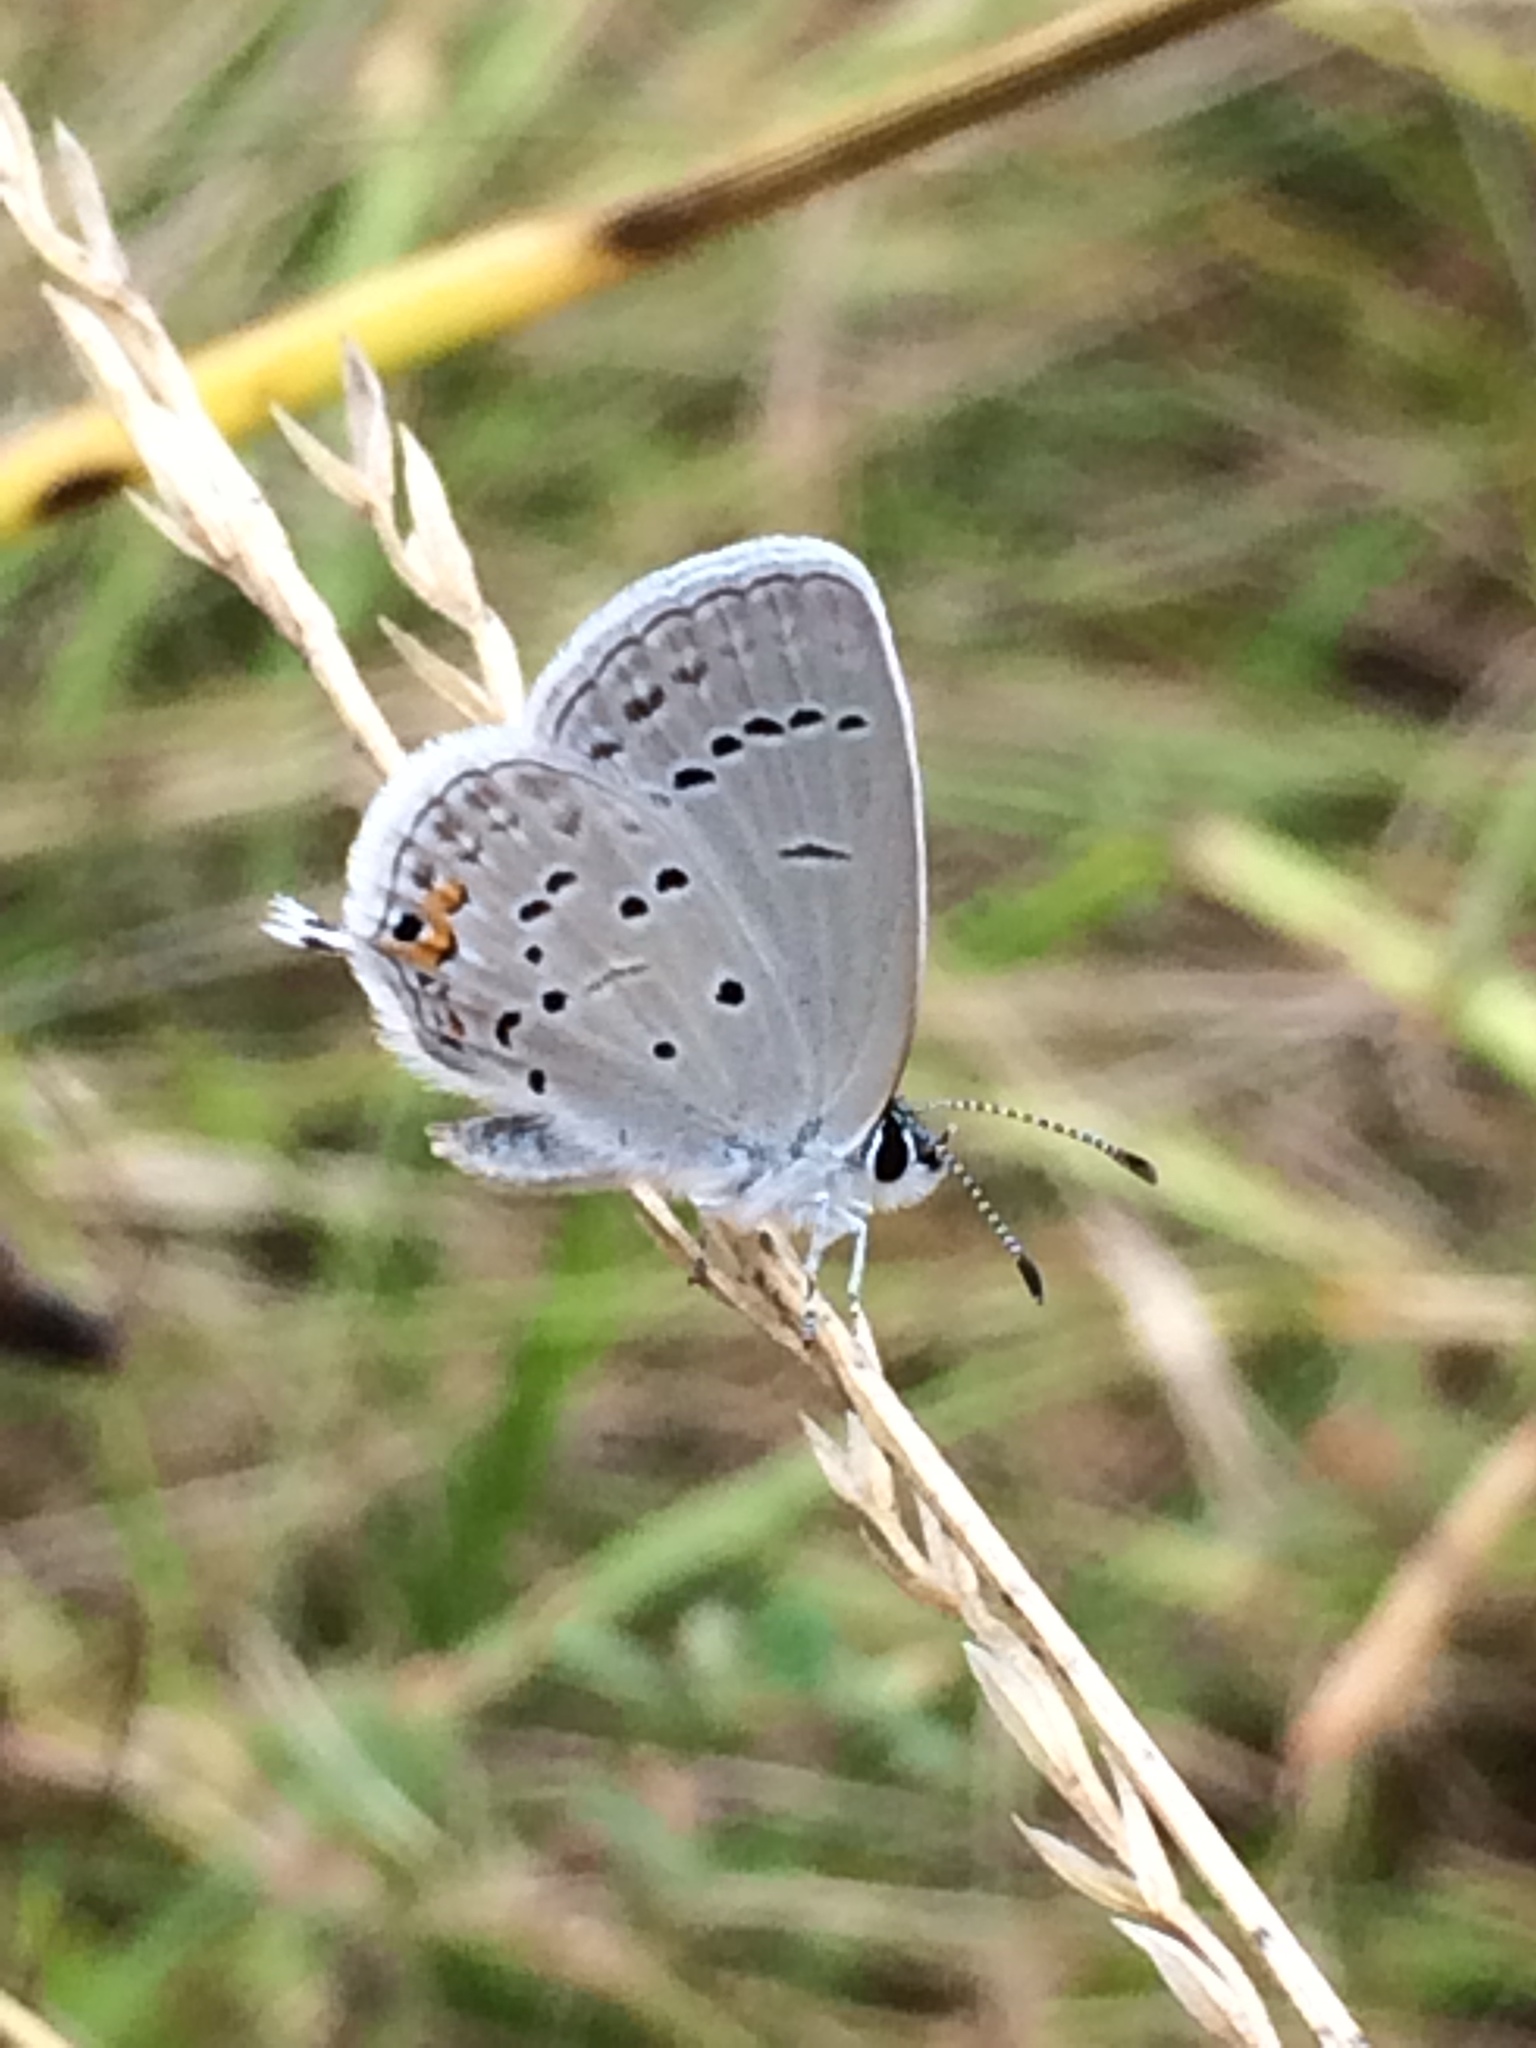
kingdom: Animalia
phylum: Arthropoda
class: Insecta
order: Lepidoptera
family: Lycaenidae
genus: Elkalyce
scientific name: Elkalyce comyntas
